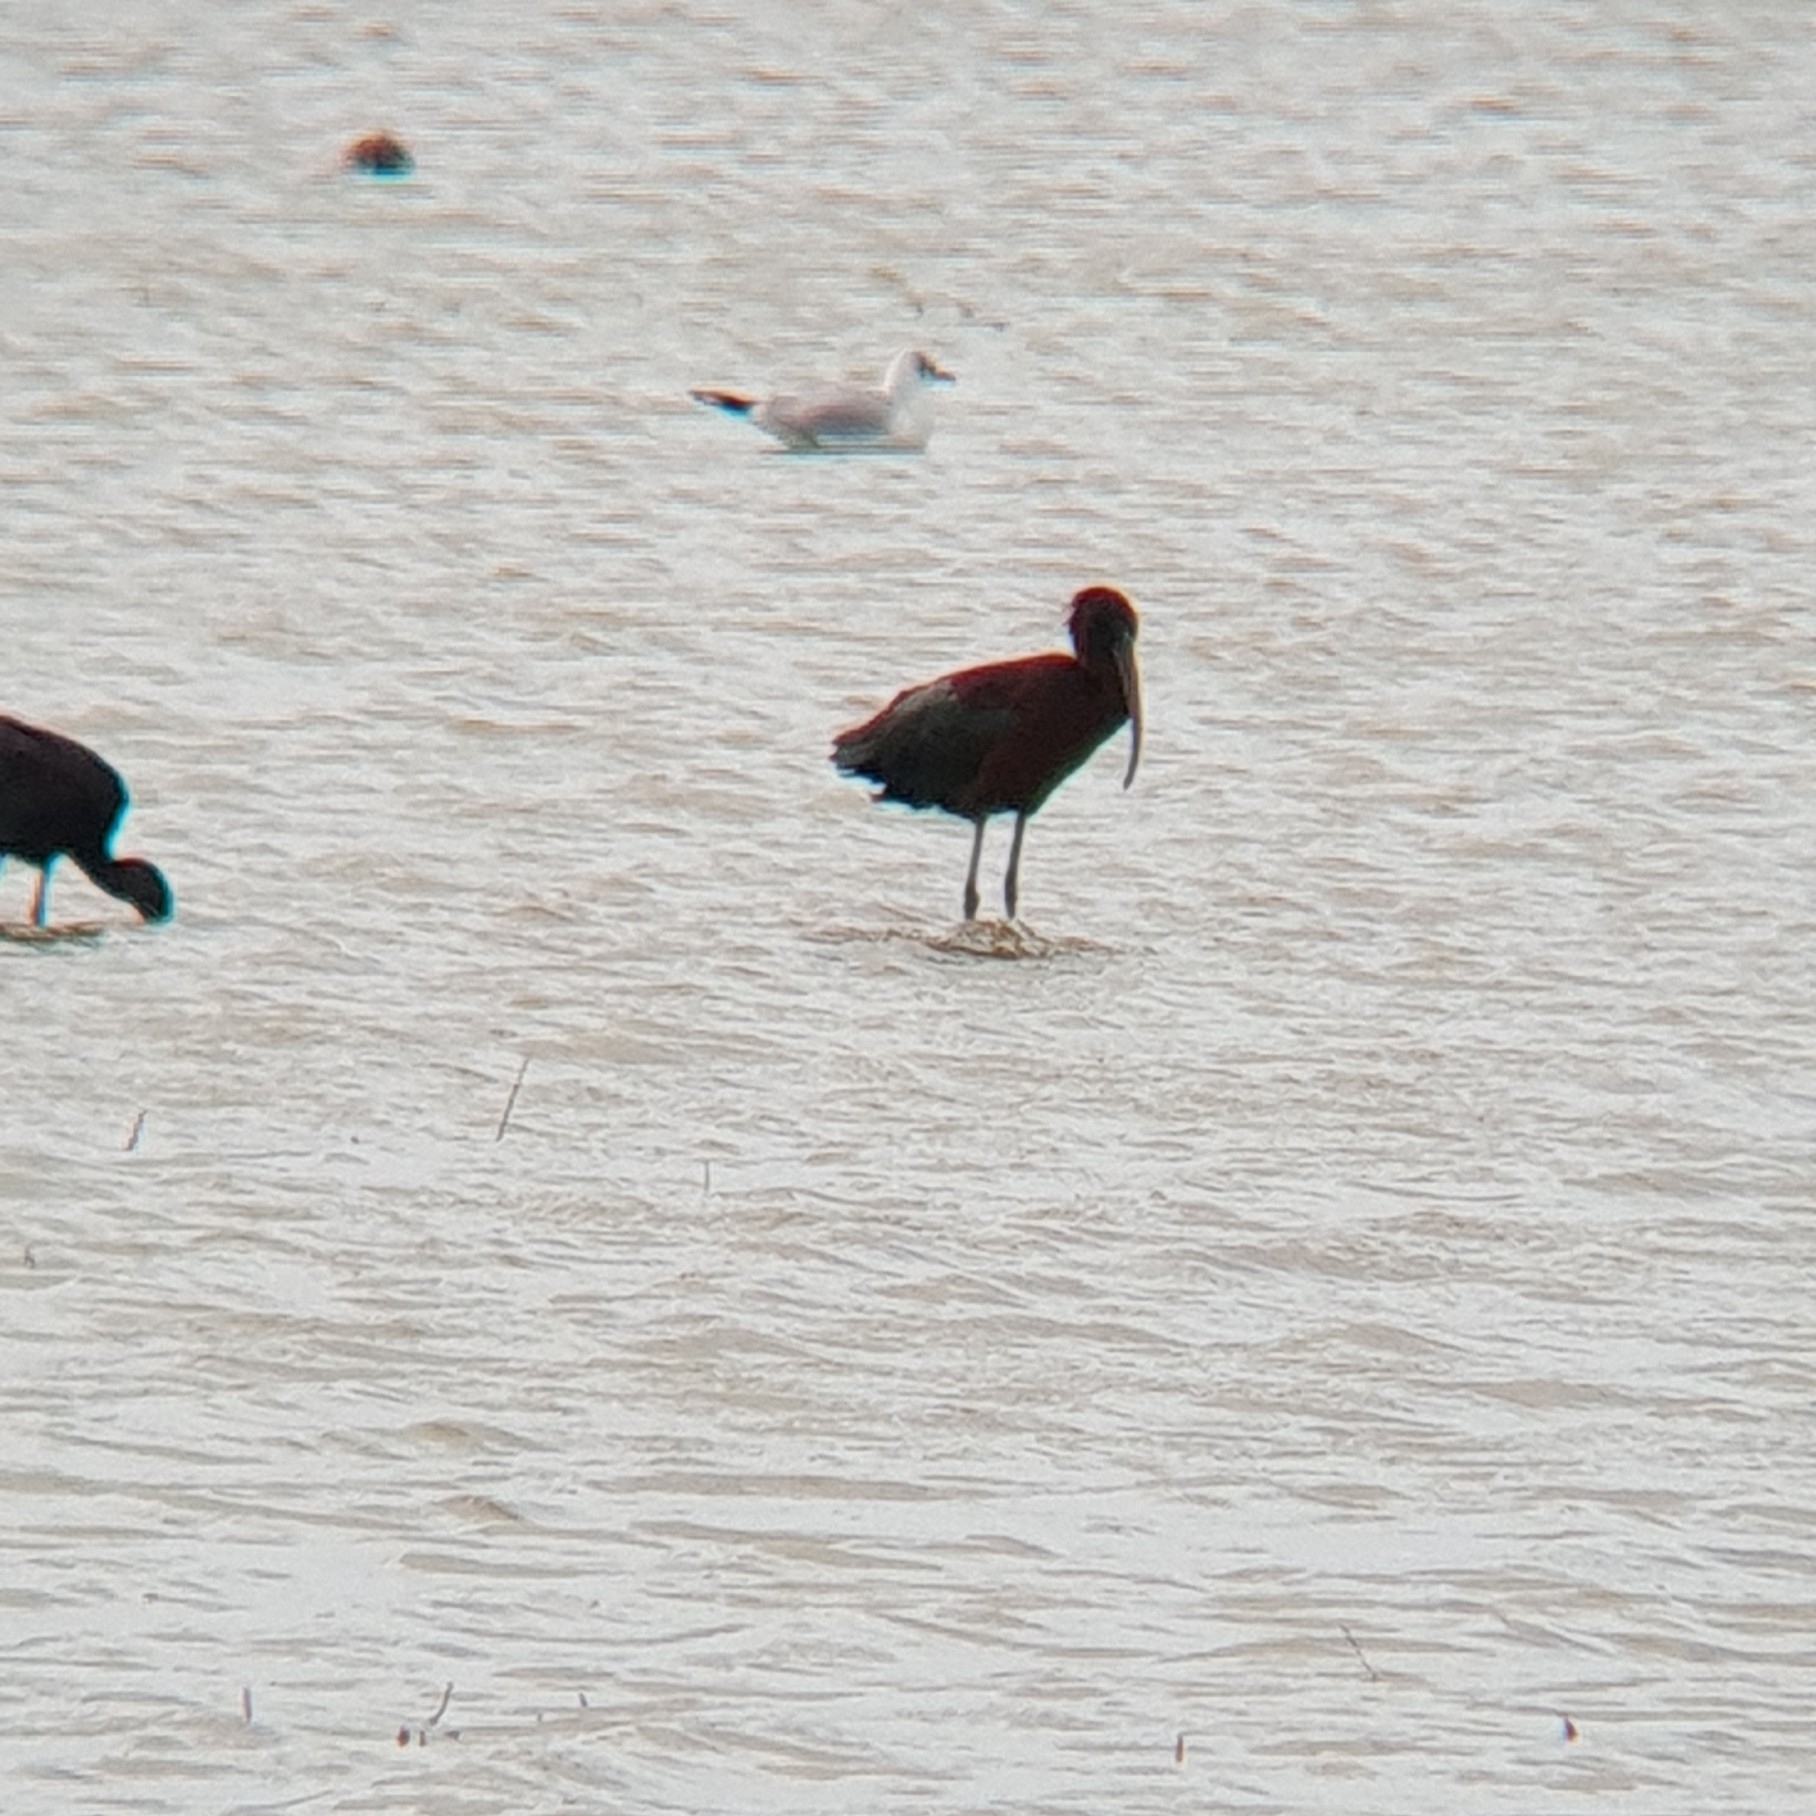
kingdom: Animalia
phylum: Chordata
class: Aves
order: Pelecaniformes
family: Threskiornithidae
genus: Plegadis
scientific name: Plegadis falcinellus
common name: Glossy ibis
